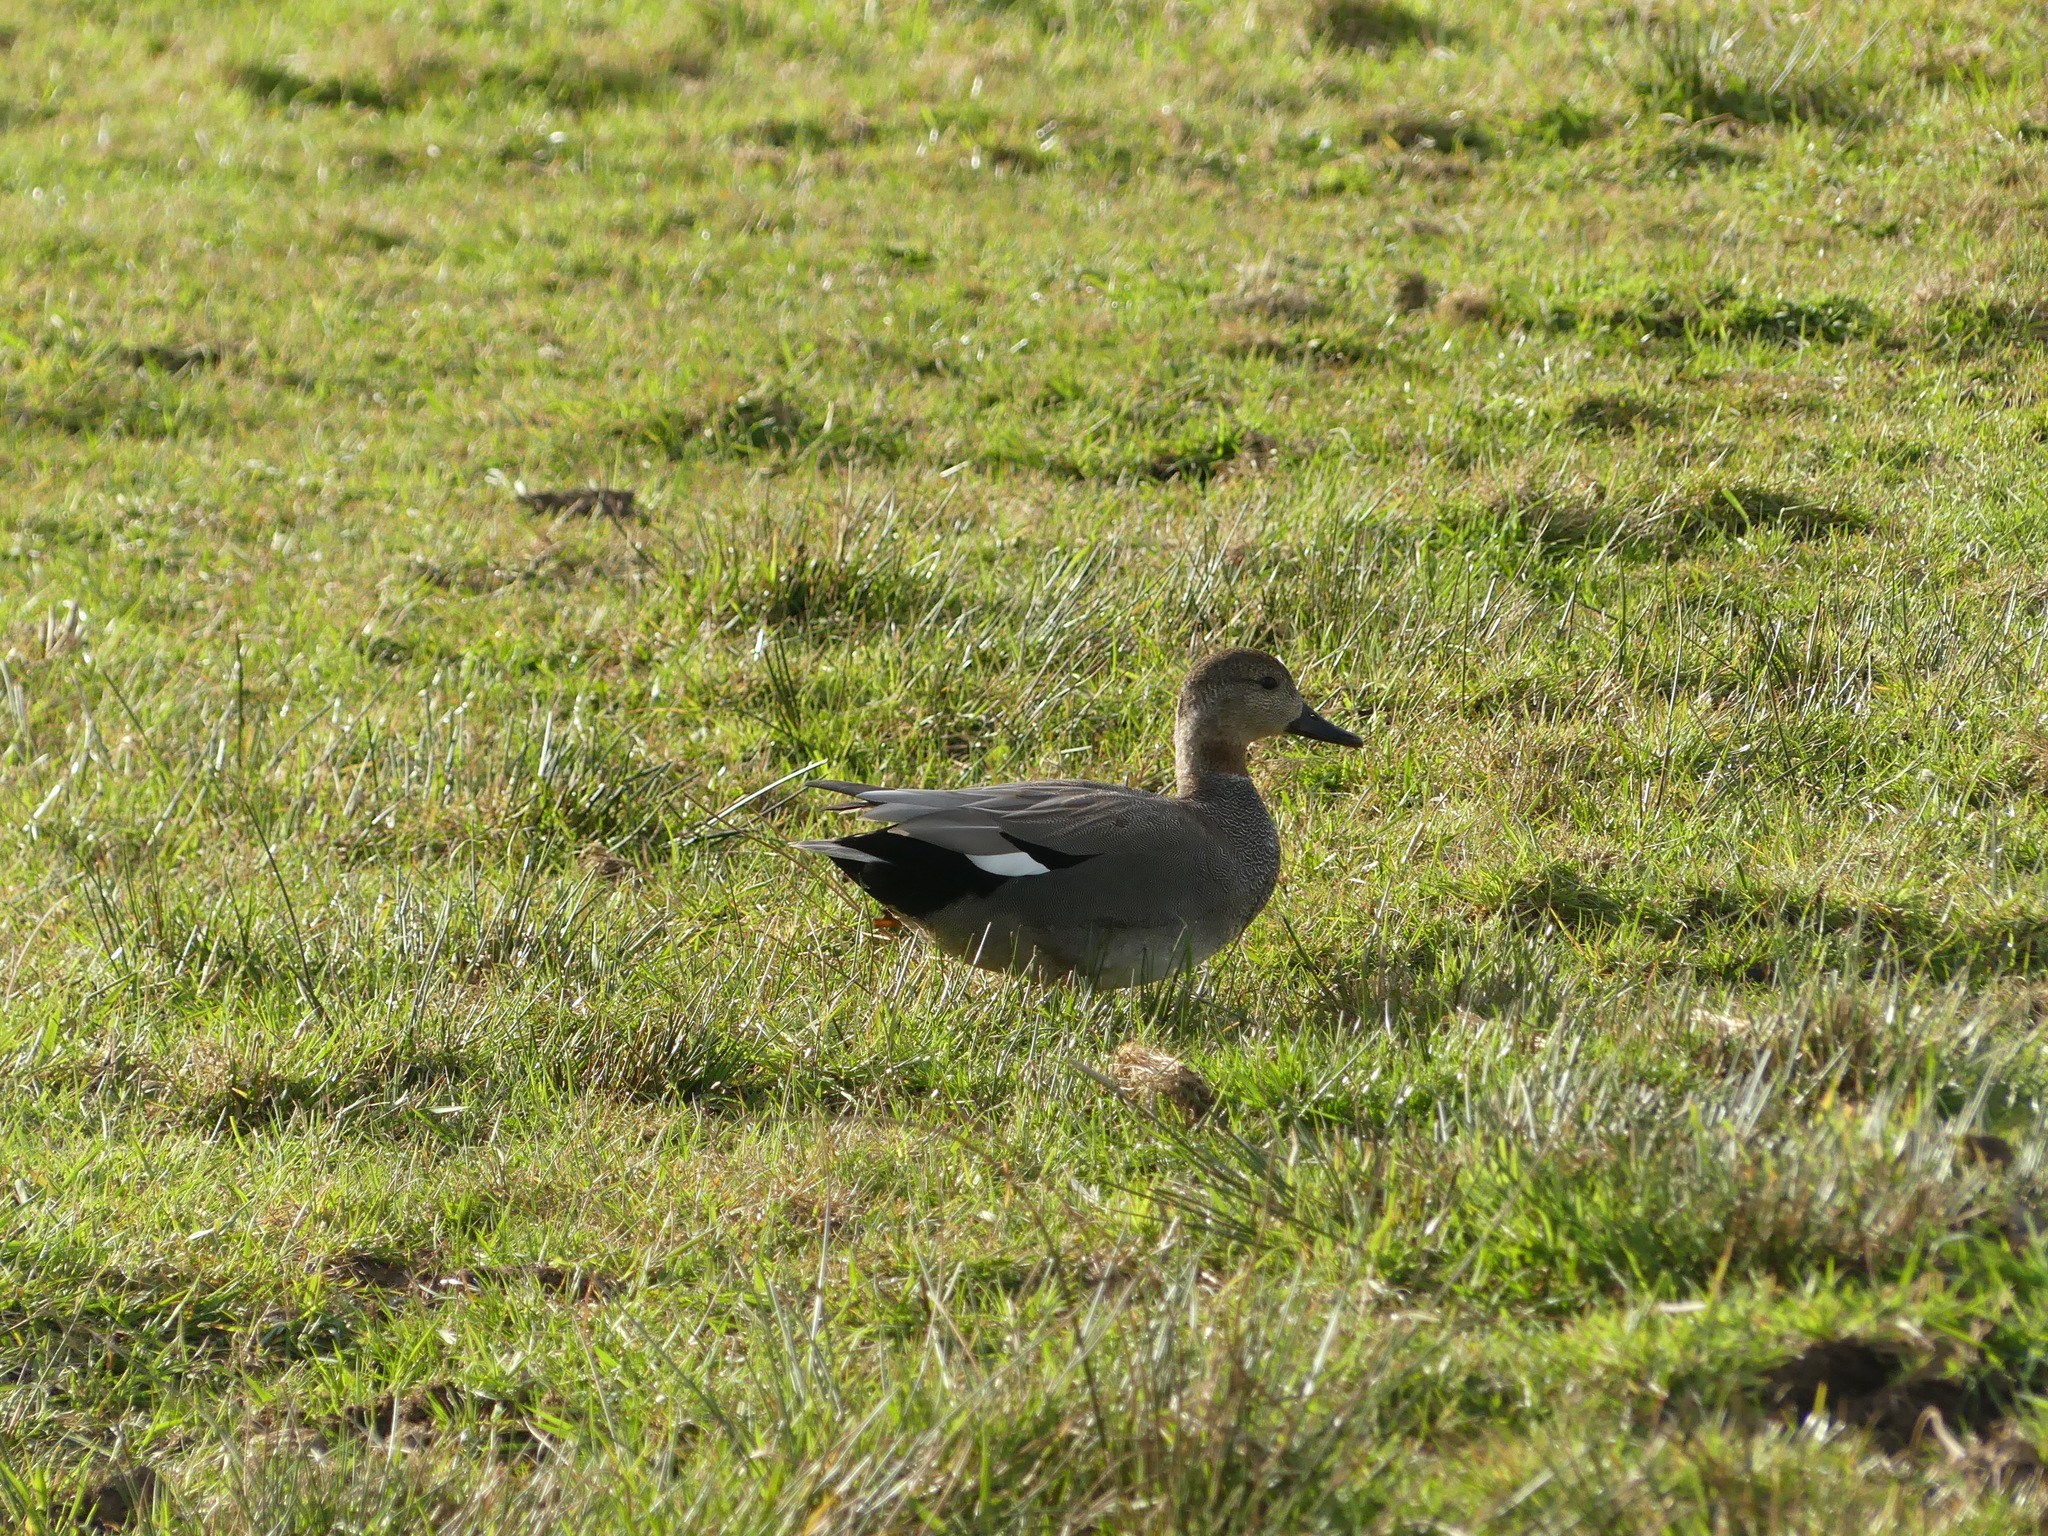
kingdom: Animalia
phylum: Chordata
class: Aves
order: Anseriformes
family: Anatidae
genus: Mareca
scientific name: Mareca strepera
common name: Gadwall
